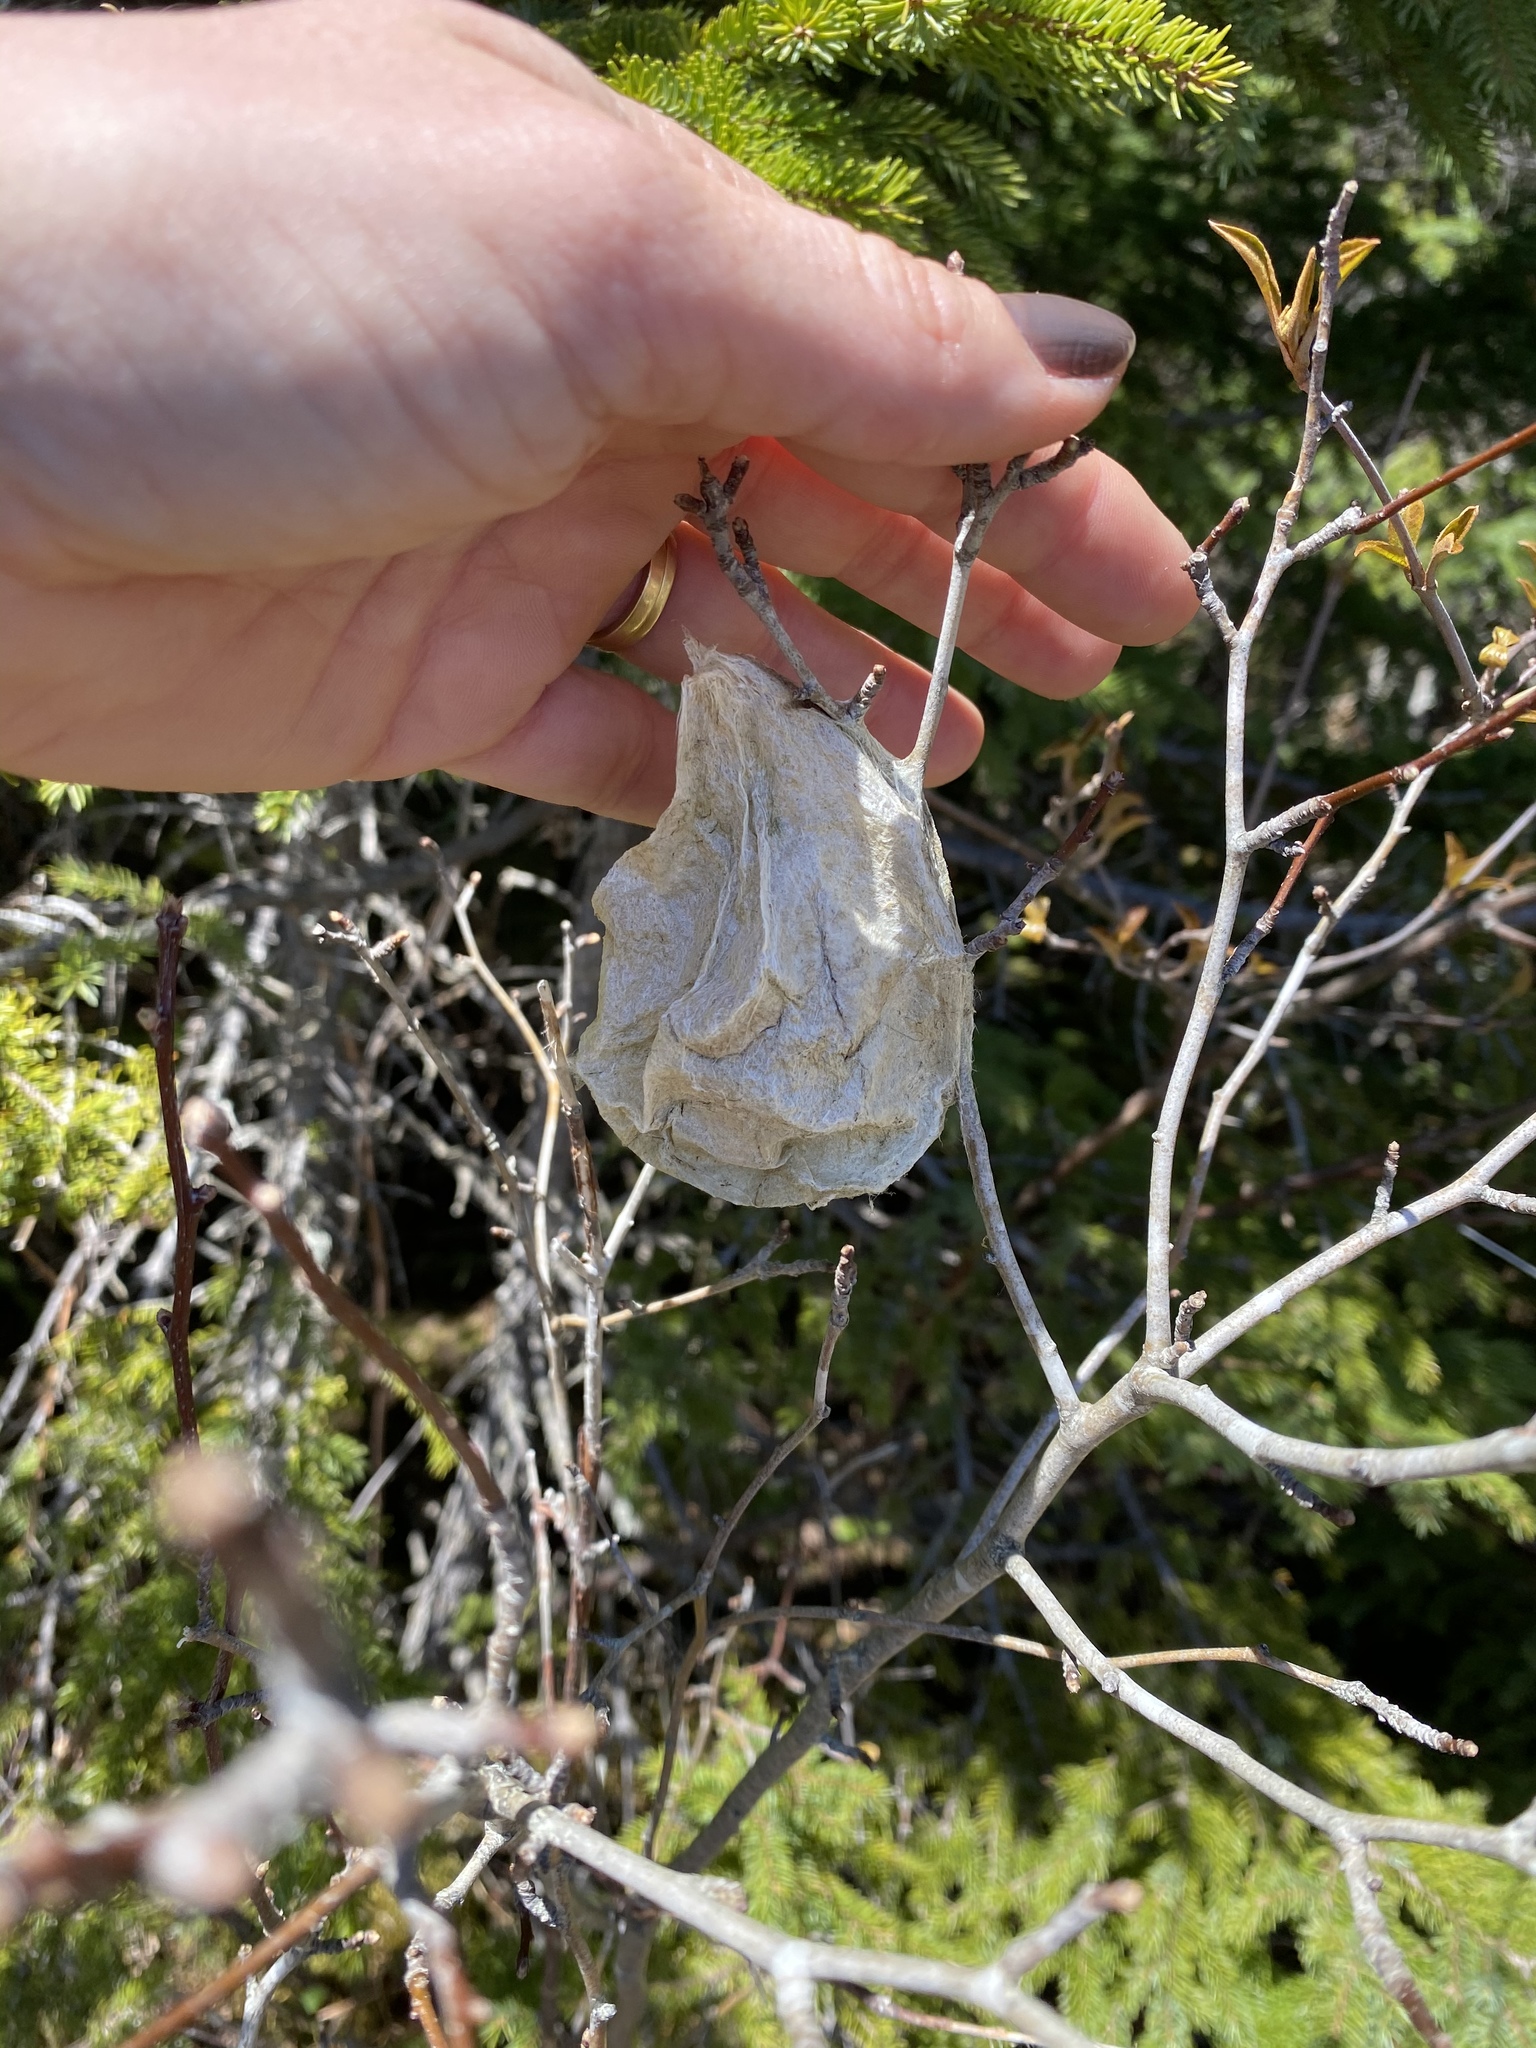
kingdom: Animalia
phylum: Arthropoda
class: Insecta
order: Lepidoptera
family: Saturniidae
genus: Hyalophora
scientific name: Hyalophora cecropia
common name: Cecropia silkmoth
